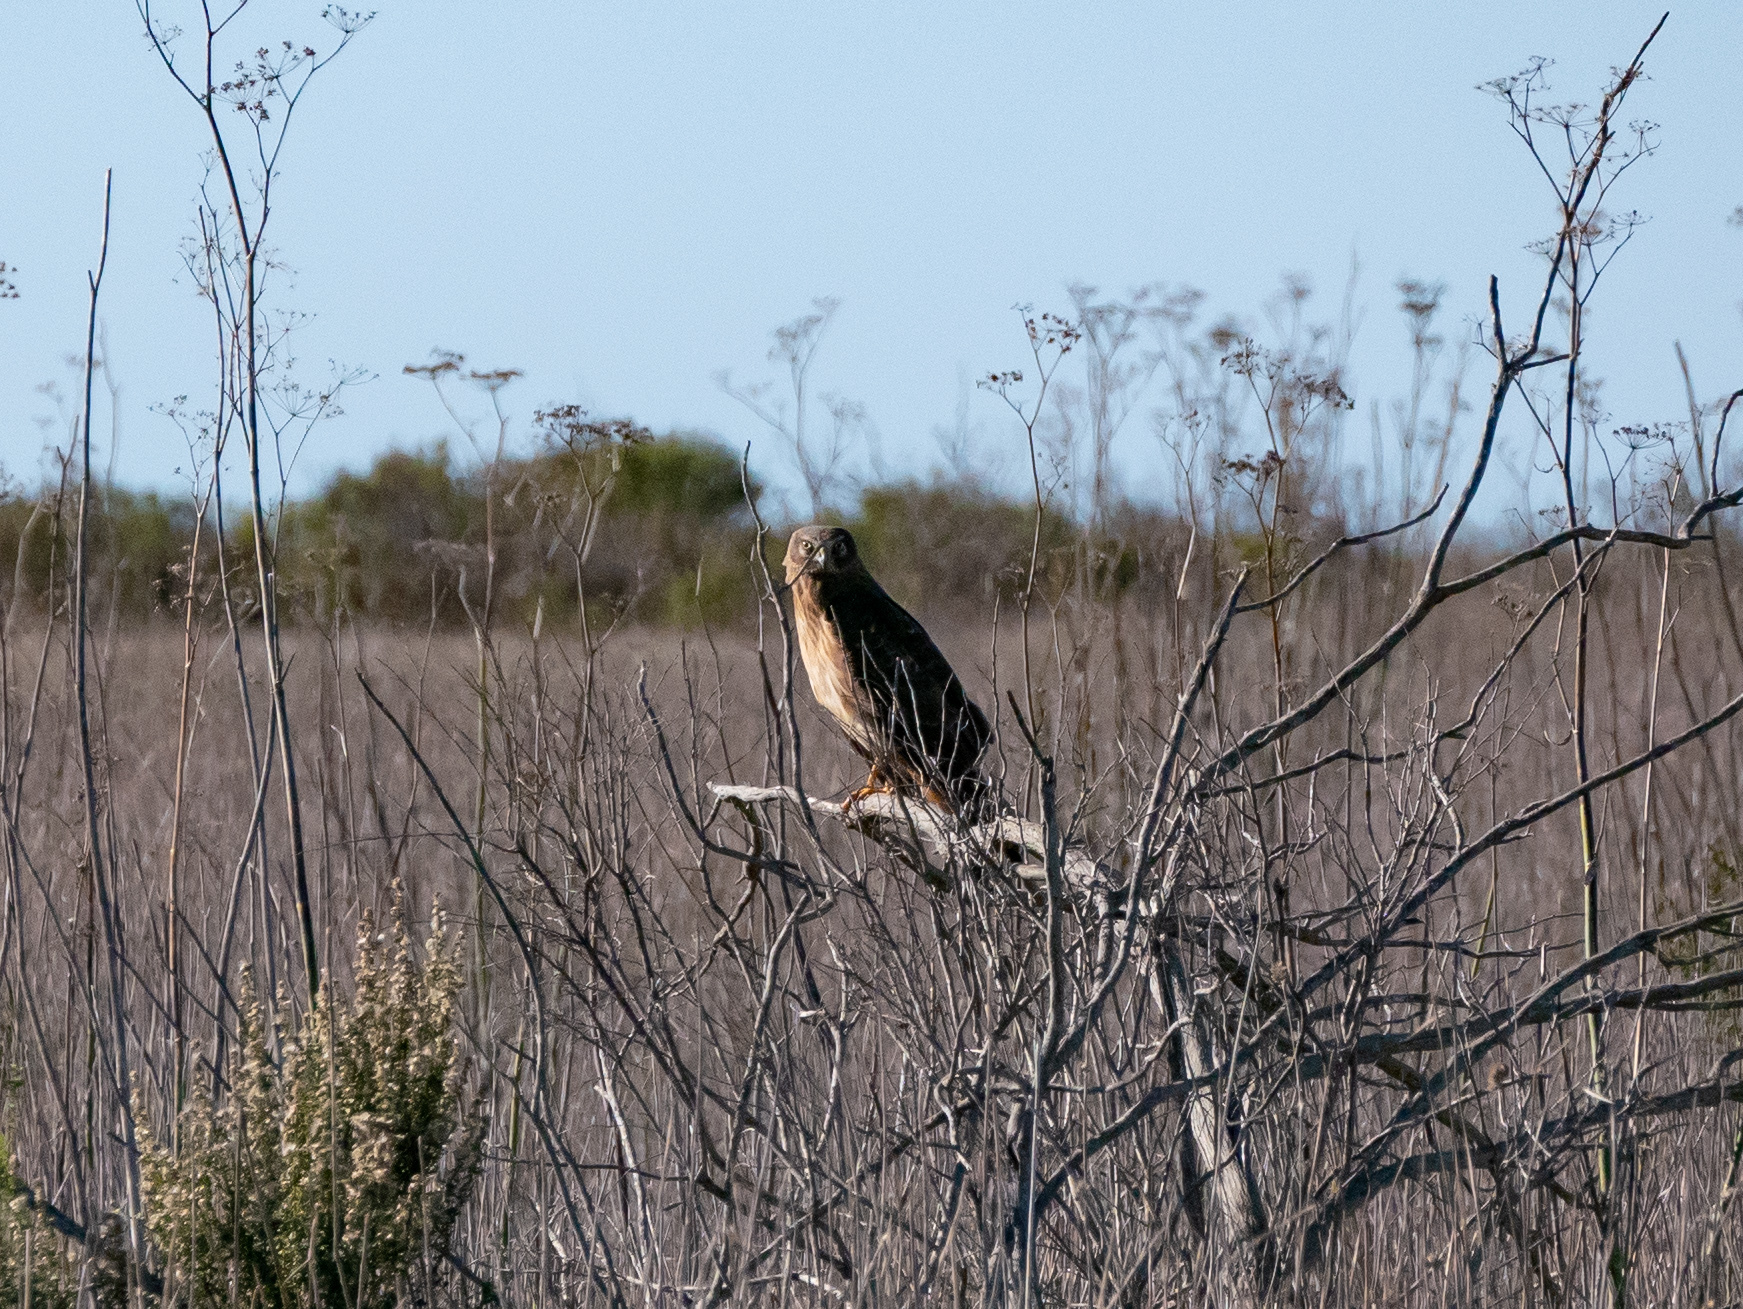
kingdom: Animalia
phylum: Chordata
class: Aves
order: Accipitriformes
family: Accipitridae
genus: Circus
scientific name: Circus cyaneus
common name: Hen harrier
